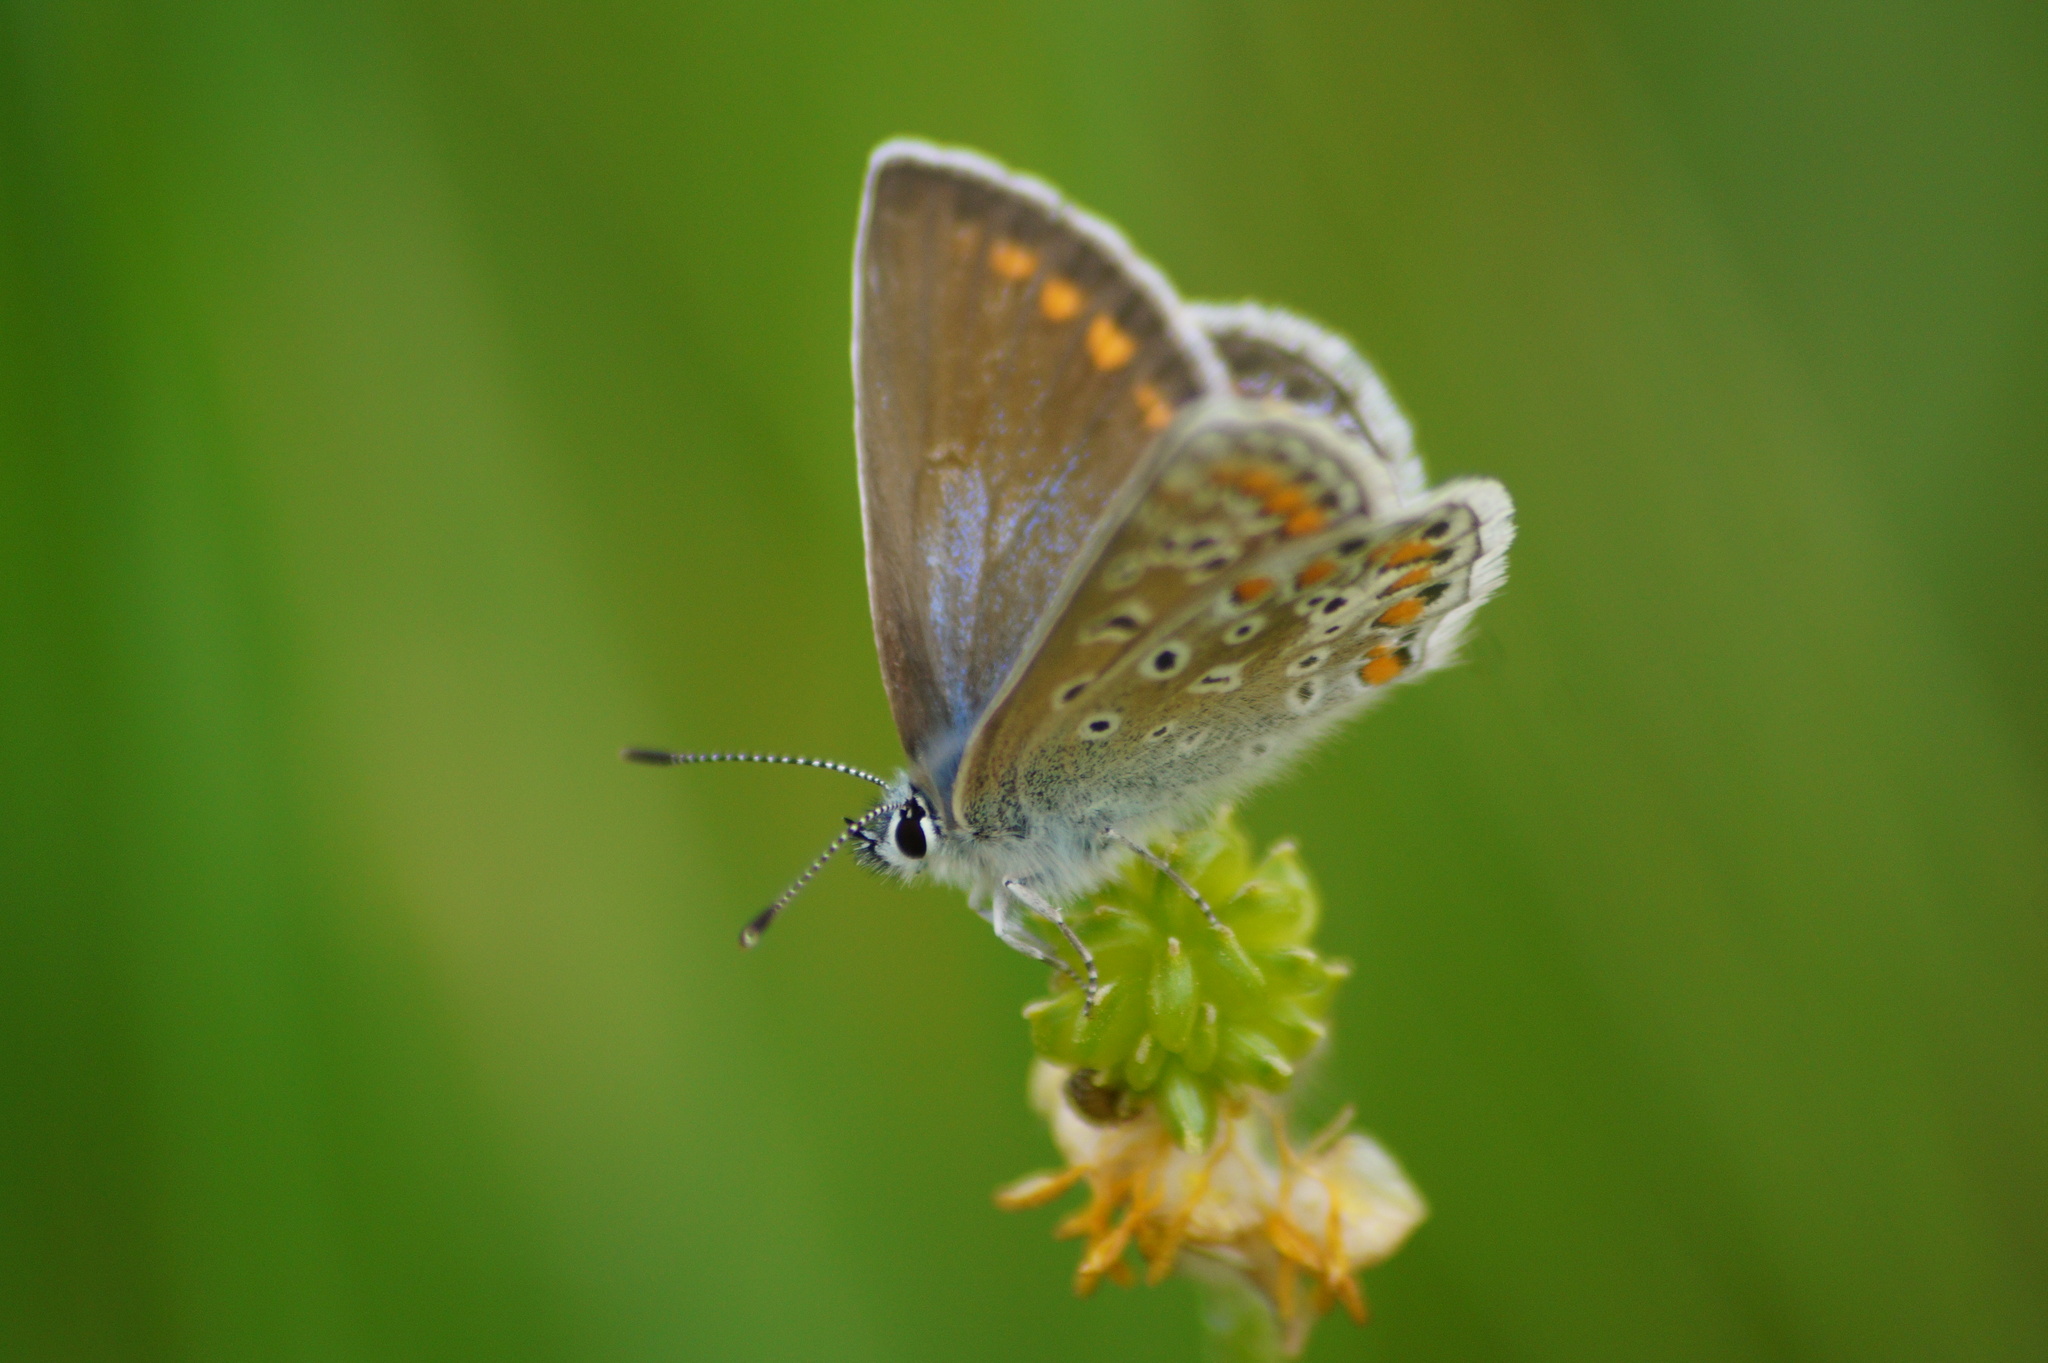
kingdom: Animalia
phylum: Arthropoda
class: Insecta
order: Lepidoptera
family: Lycaenidae
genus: Polyommatus
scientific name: Polyommatus icarus
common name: Common blue
